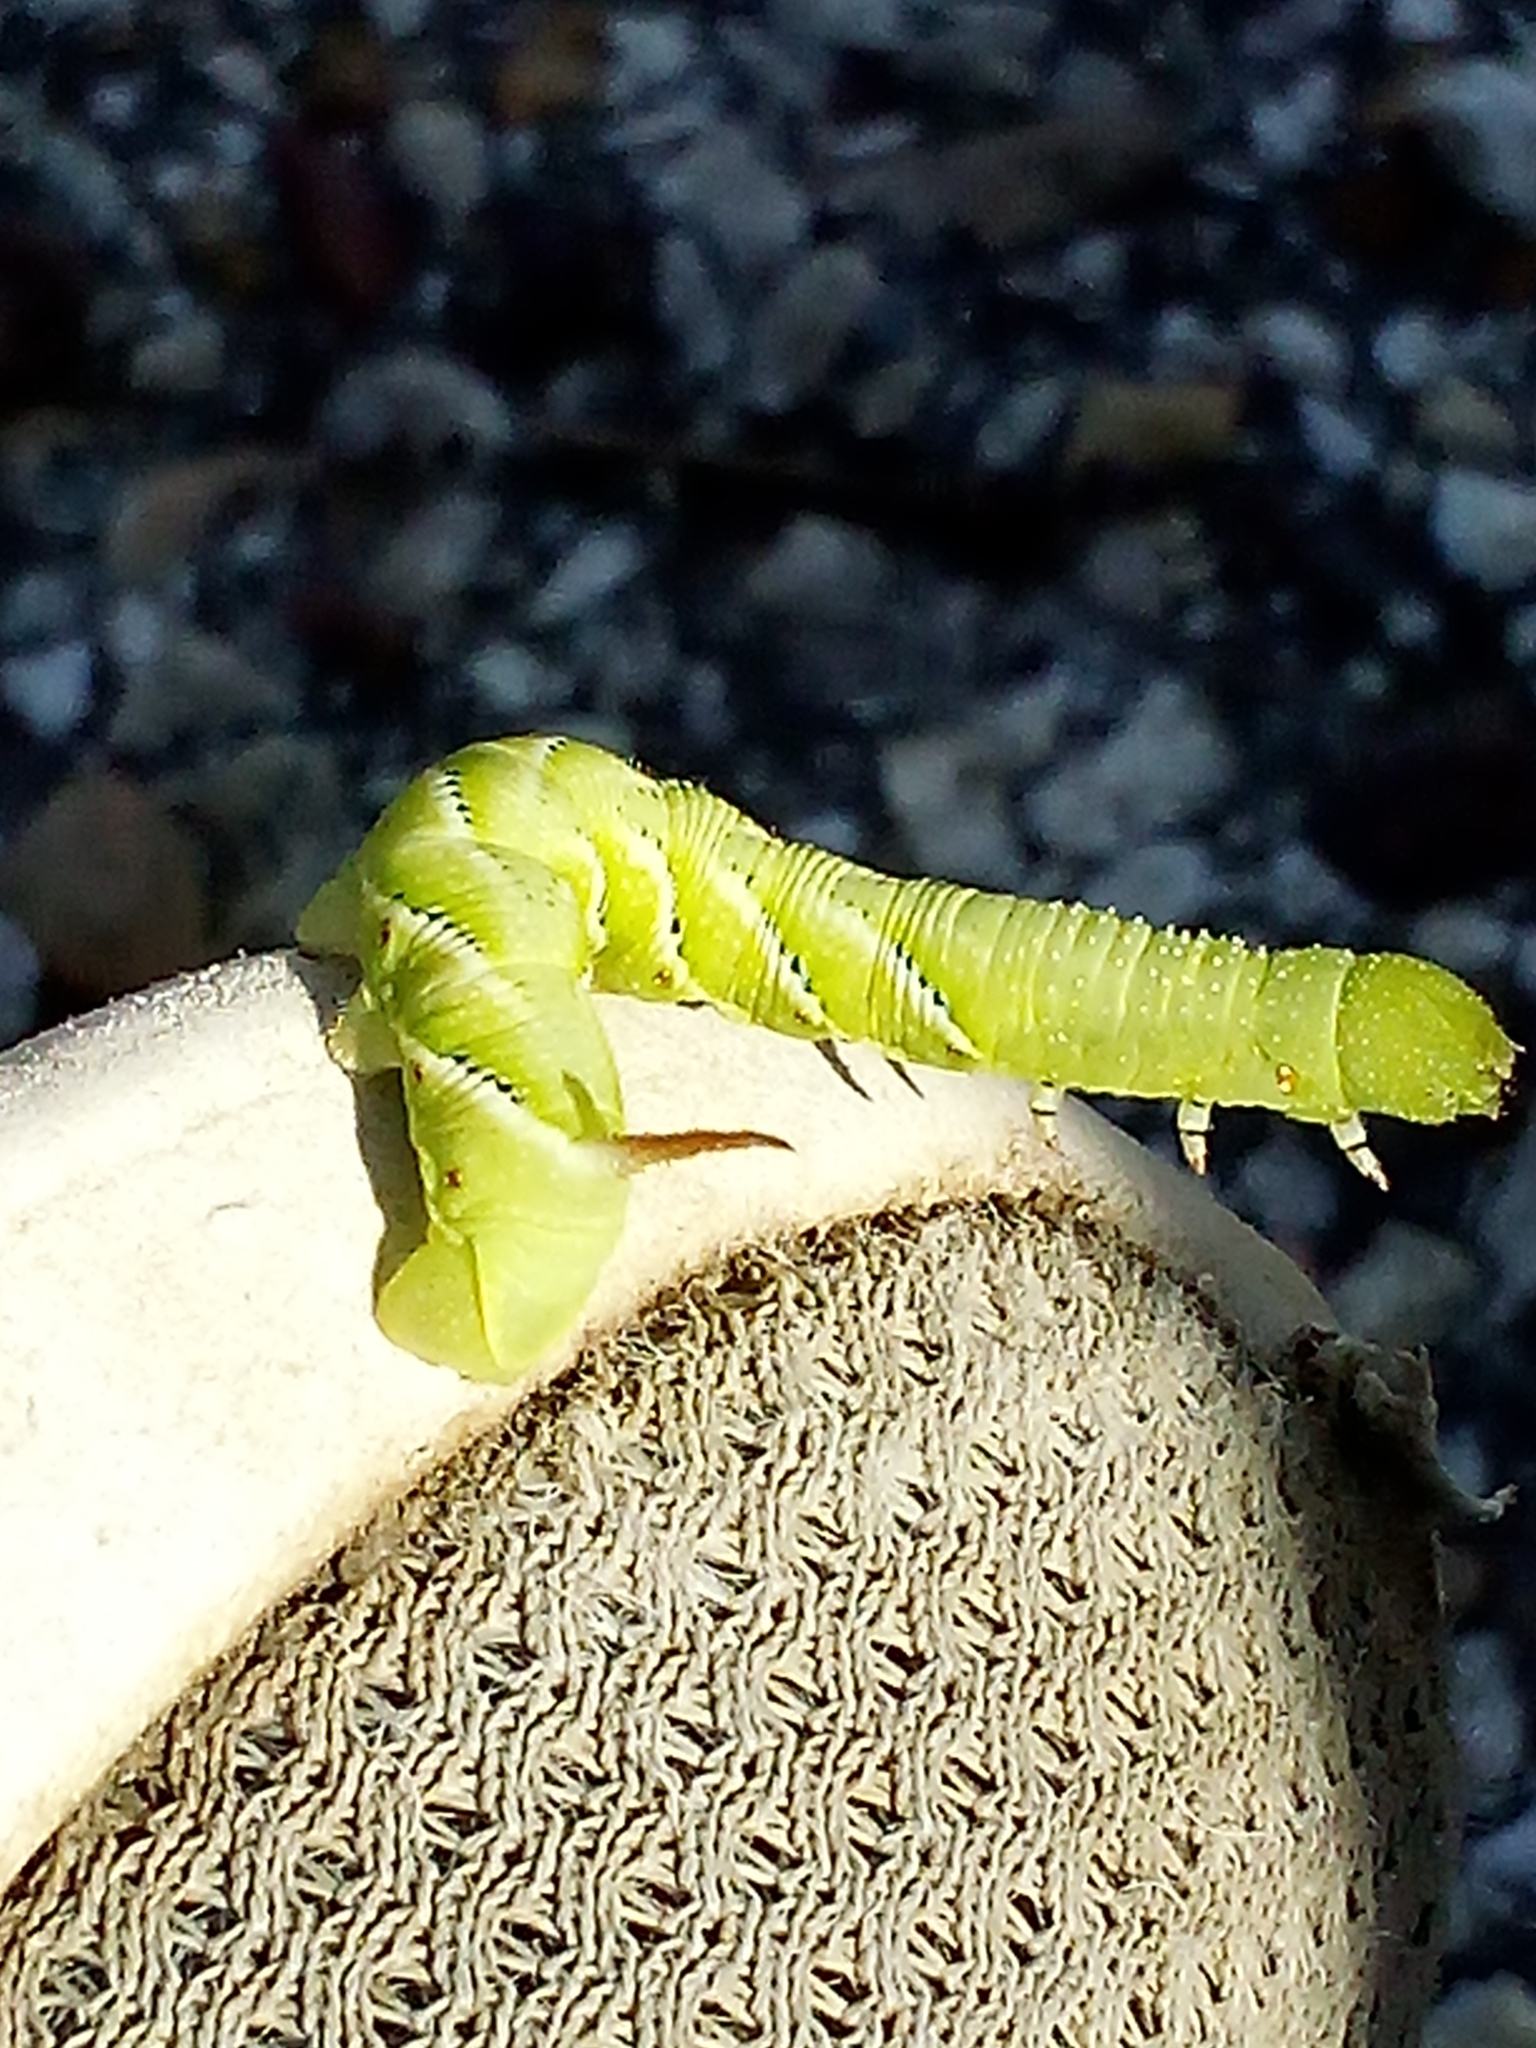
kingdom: Animalia
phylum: Arthropoda
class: Insecta
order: Lepidoptera
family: Sphingidae
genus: Manduca
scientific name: Manduca sexta
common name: Carolina sphinx
